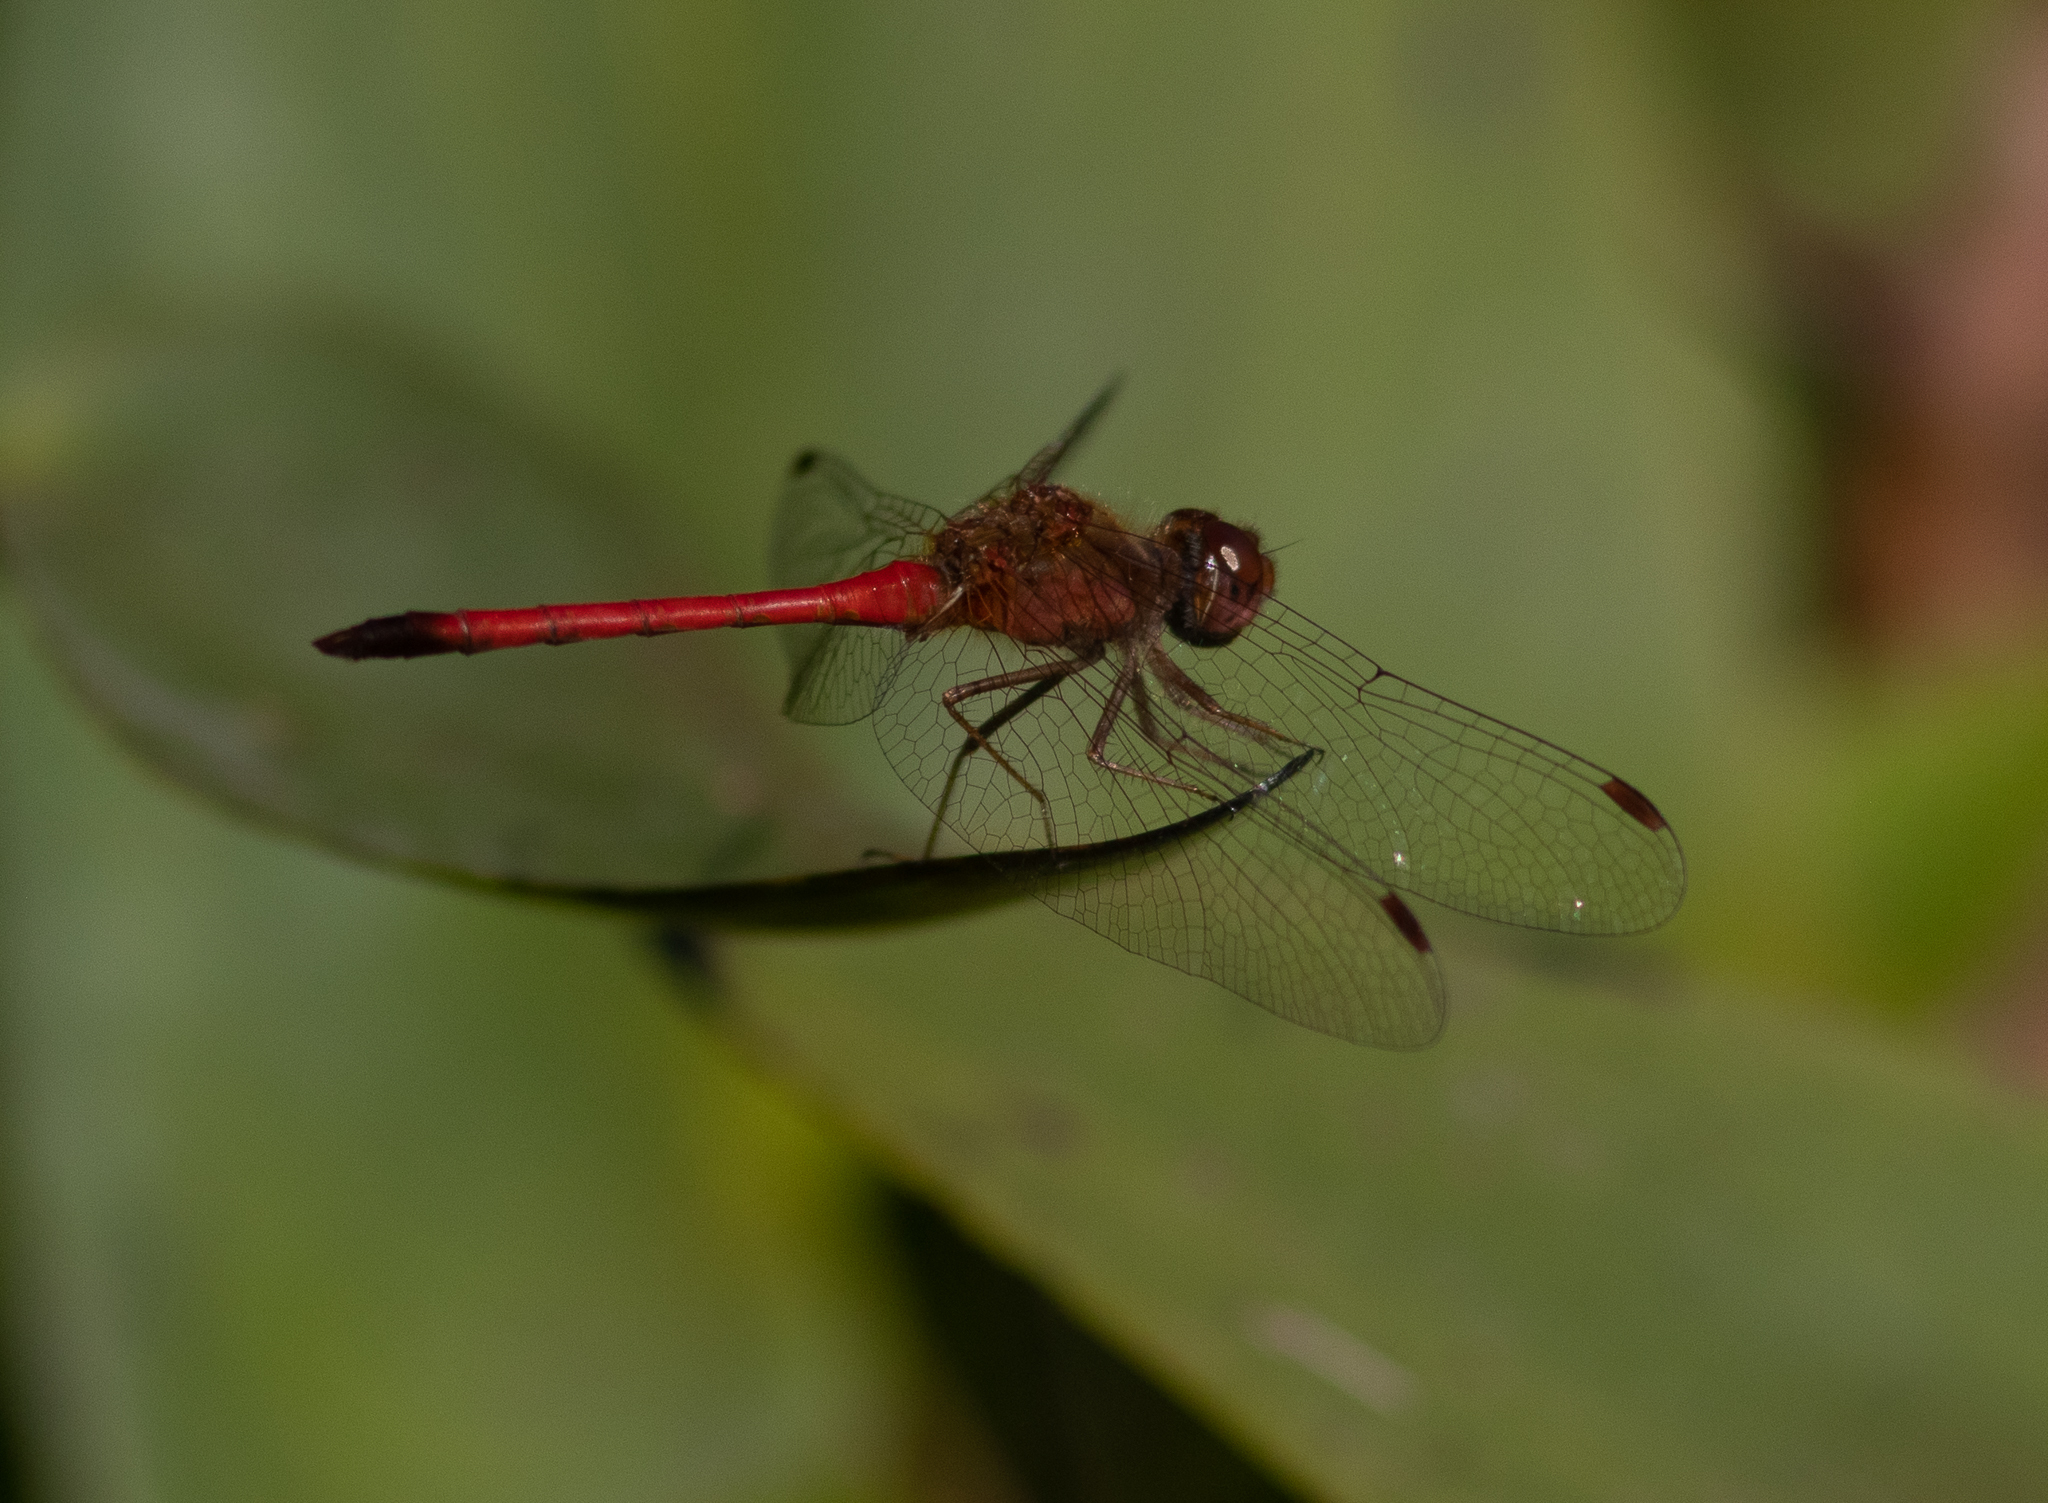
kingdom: Animalia
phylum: Arthropoda
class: Insecta
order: Odonata
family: Libellulidae
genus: Sympetrum
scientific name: Sympetrum vicinum
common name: Autumn meadowhawk
